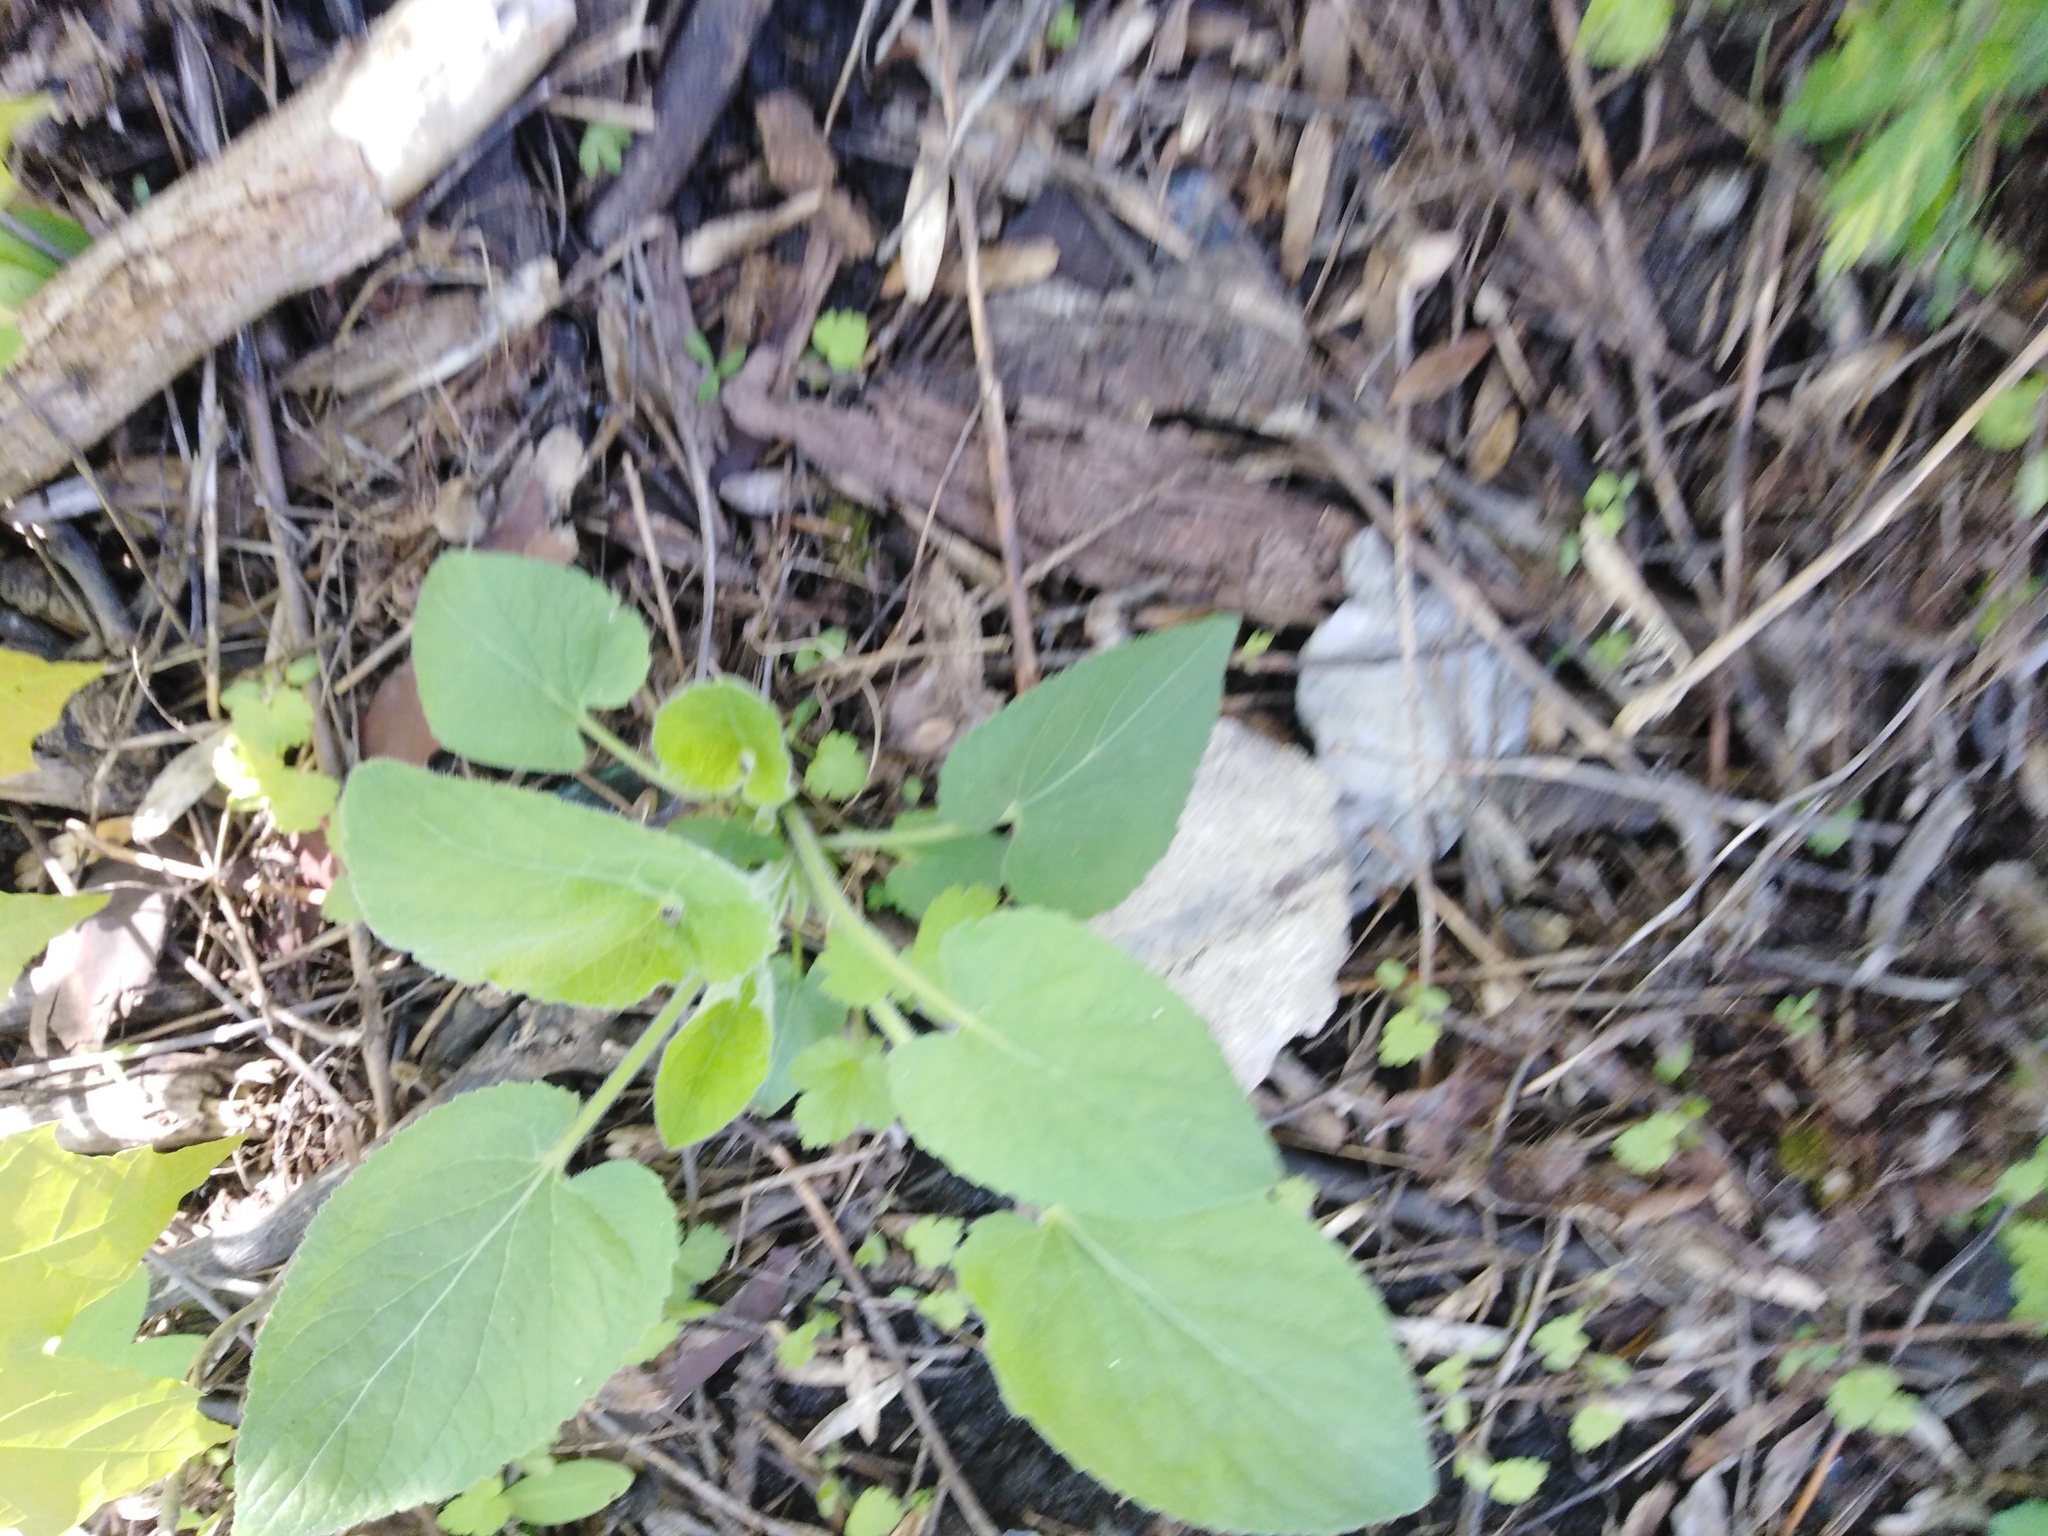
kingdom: Plantae
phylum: Tracheophyta
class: Magnoliopsida
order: Malpighiales
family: Violaceae
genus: Viola
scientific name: Viola hirta
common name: Hairy violet
